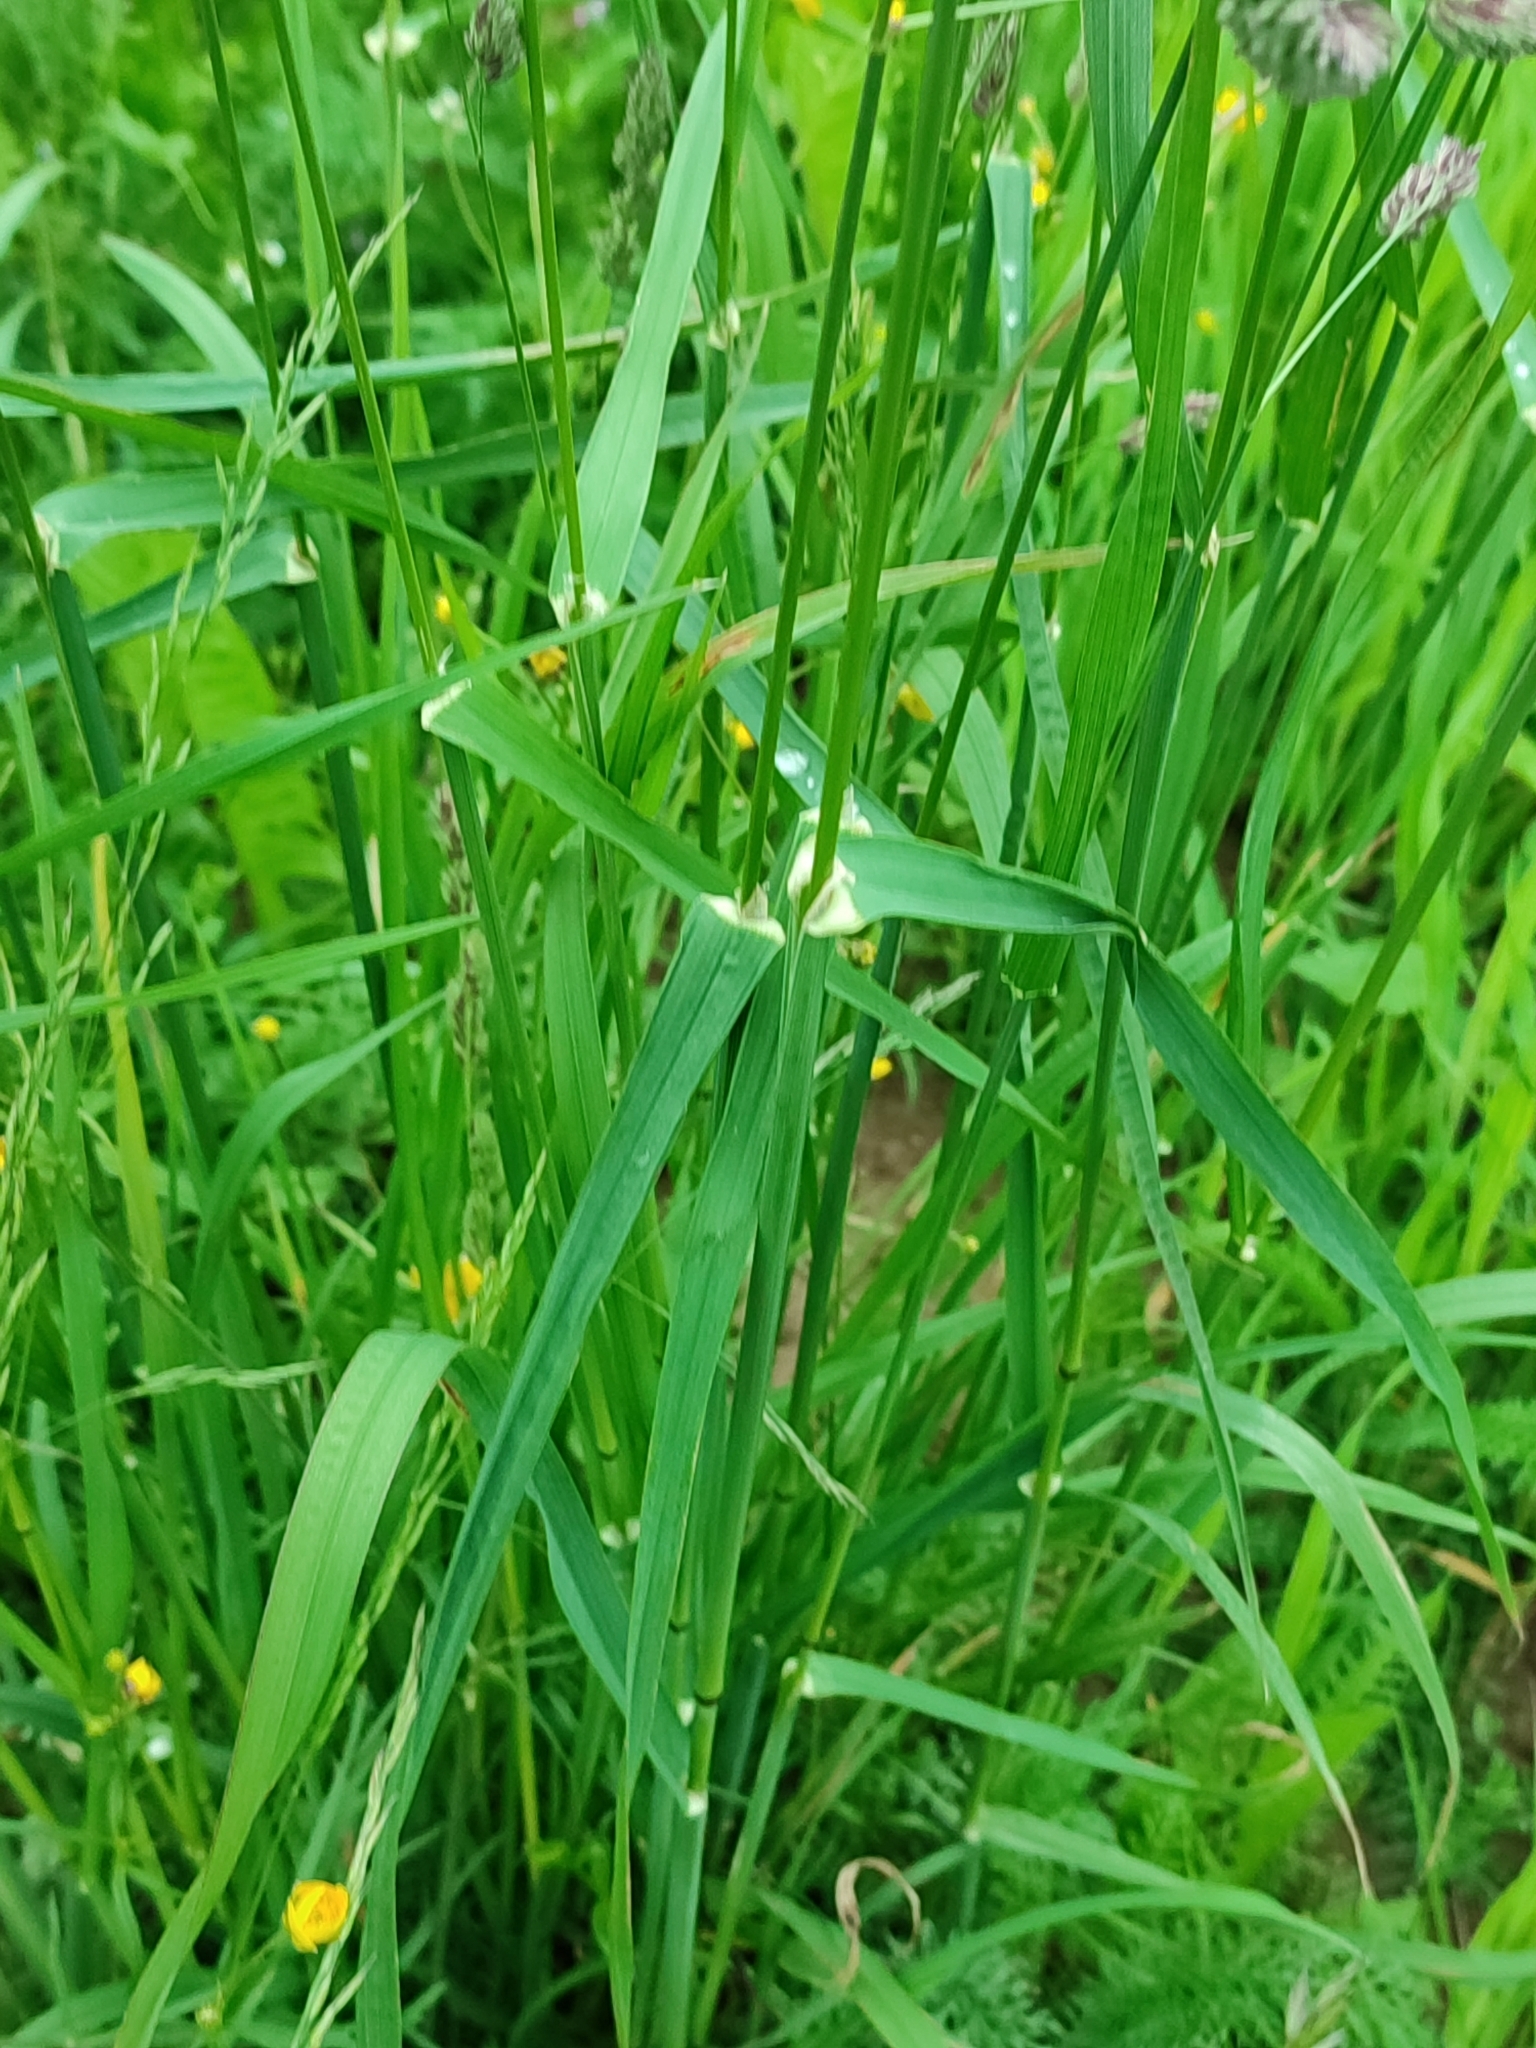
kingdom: Plantae
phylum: Tracheophyta
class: Liliopsida
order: Poales
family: Poaceae
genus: Dactylis
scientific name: Dactylis glomerata
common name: Orchardgrass
